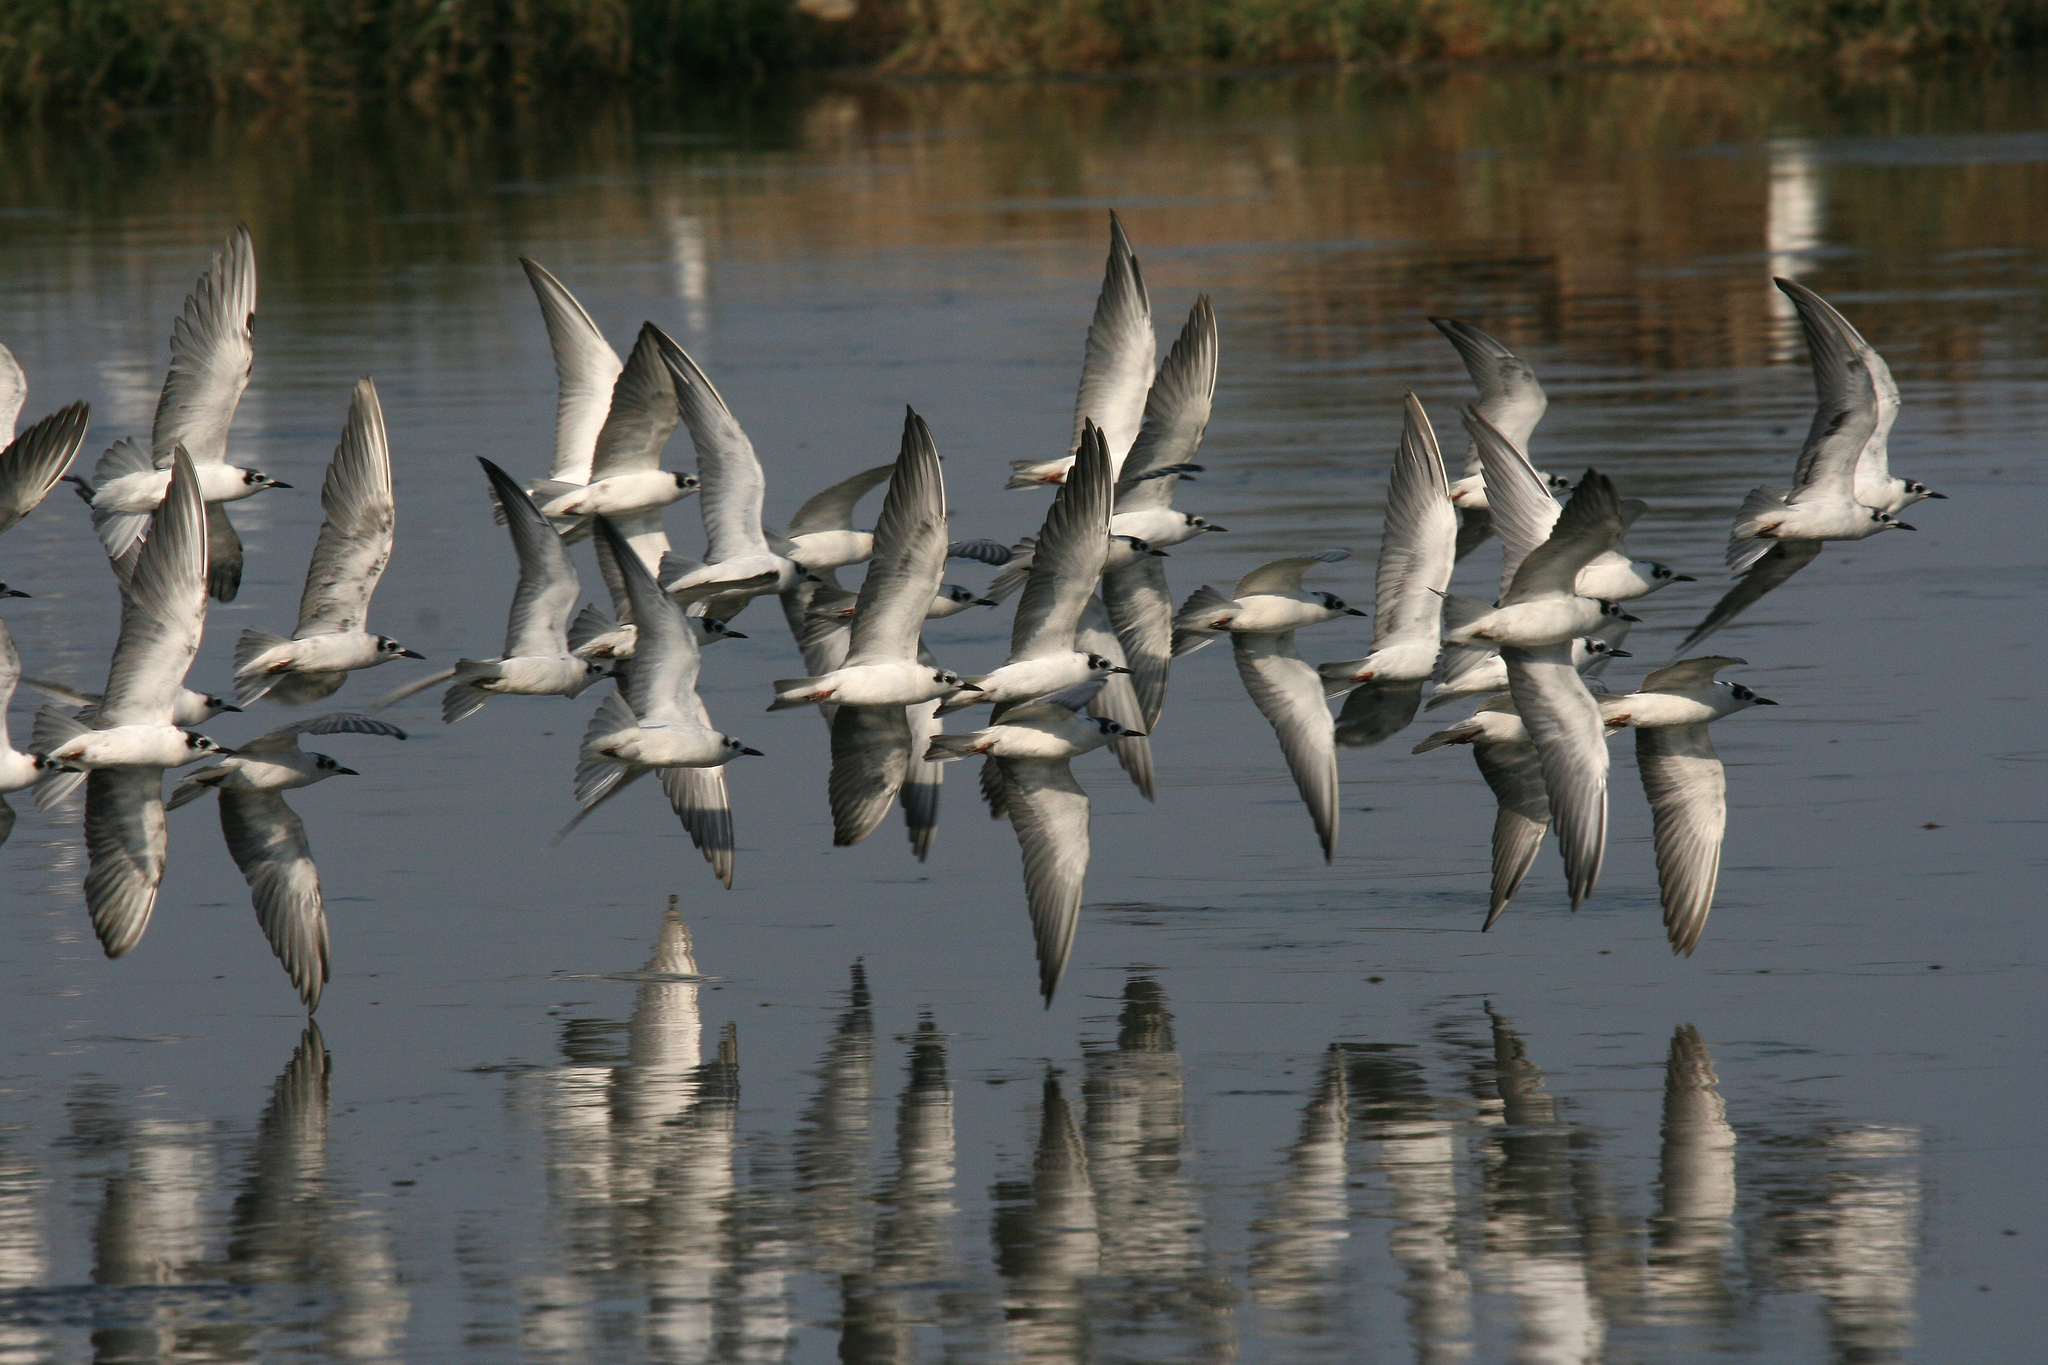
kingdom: Animalia
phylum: Chordata
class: Aves
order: Charadriiformes
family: Laridae
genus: Chlidonias
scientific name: Chlidonias leucopterus
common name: White-winged tern
